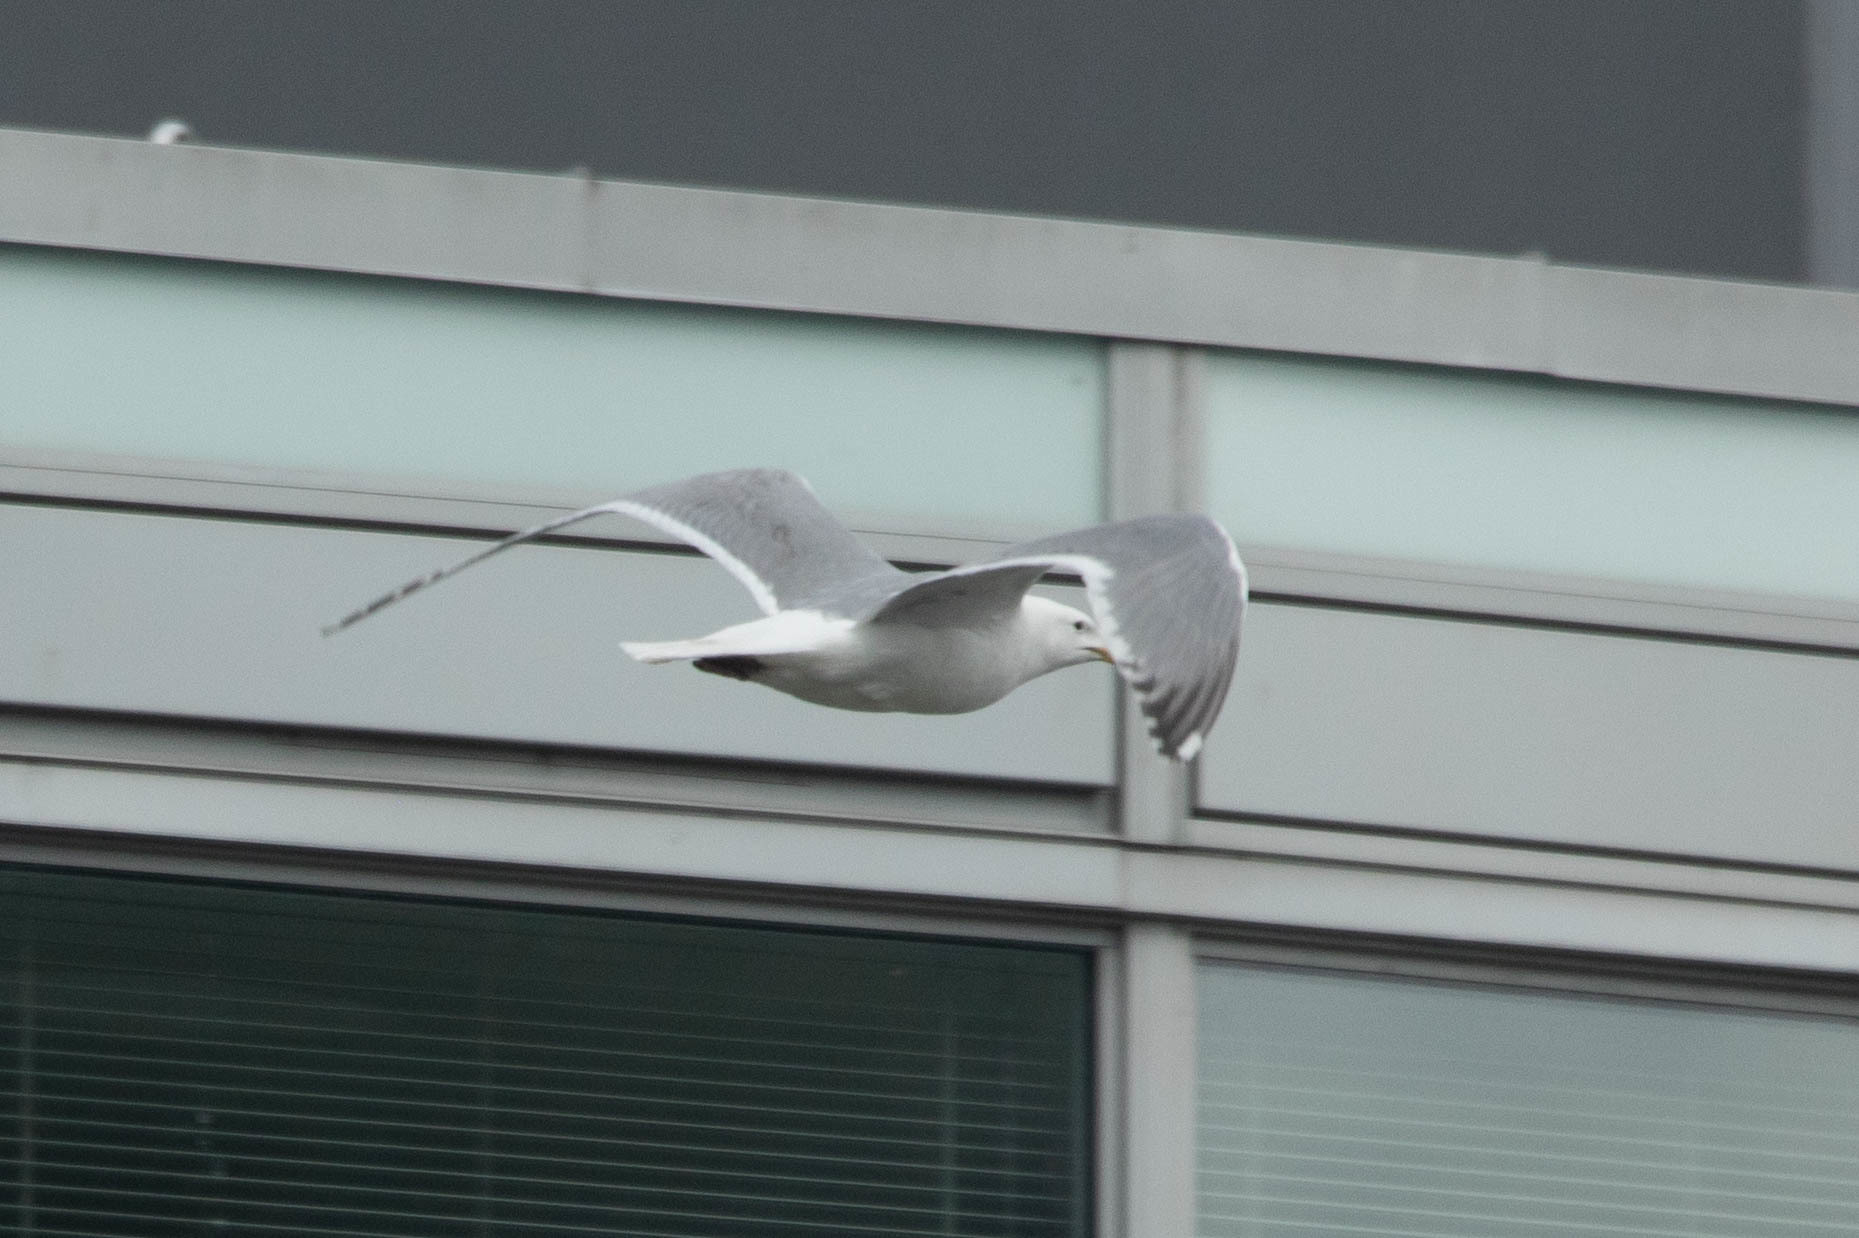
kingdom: Animalia
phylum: Chordata
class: Aves
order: Charadriiformes
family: Laridae
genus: Larus
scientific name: Larus
